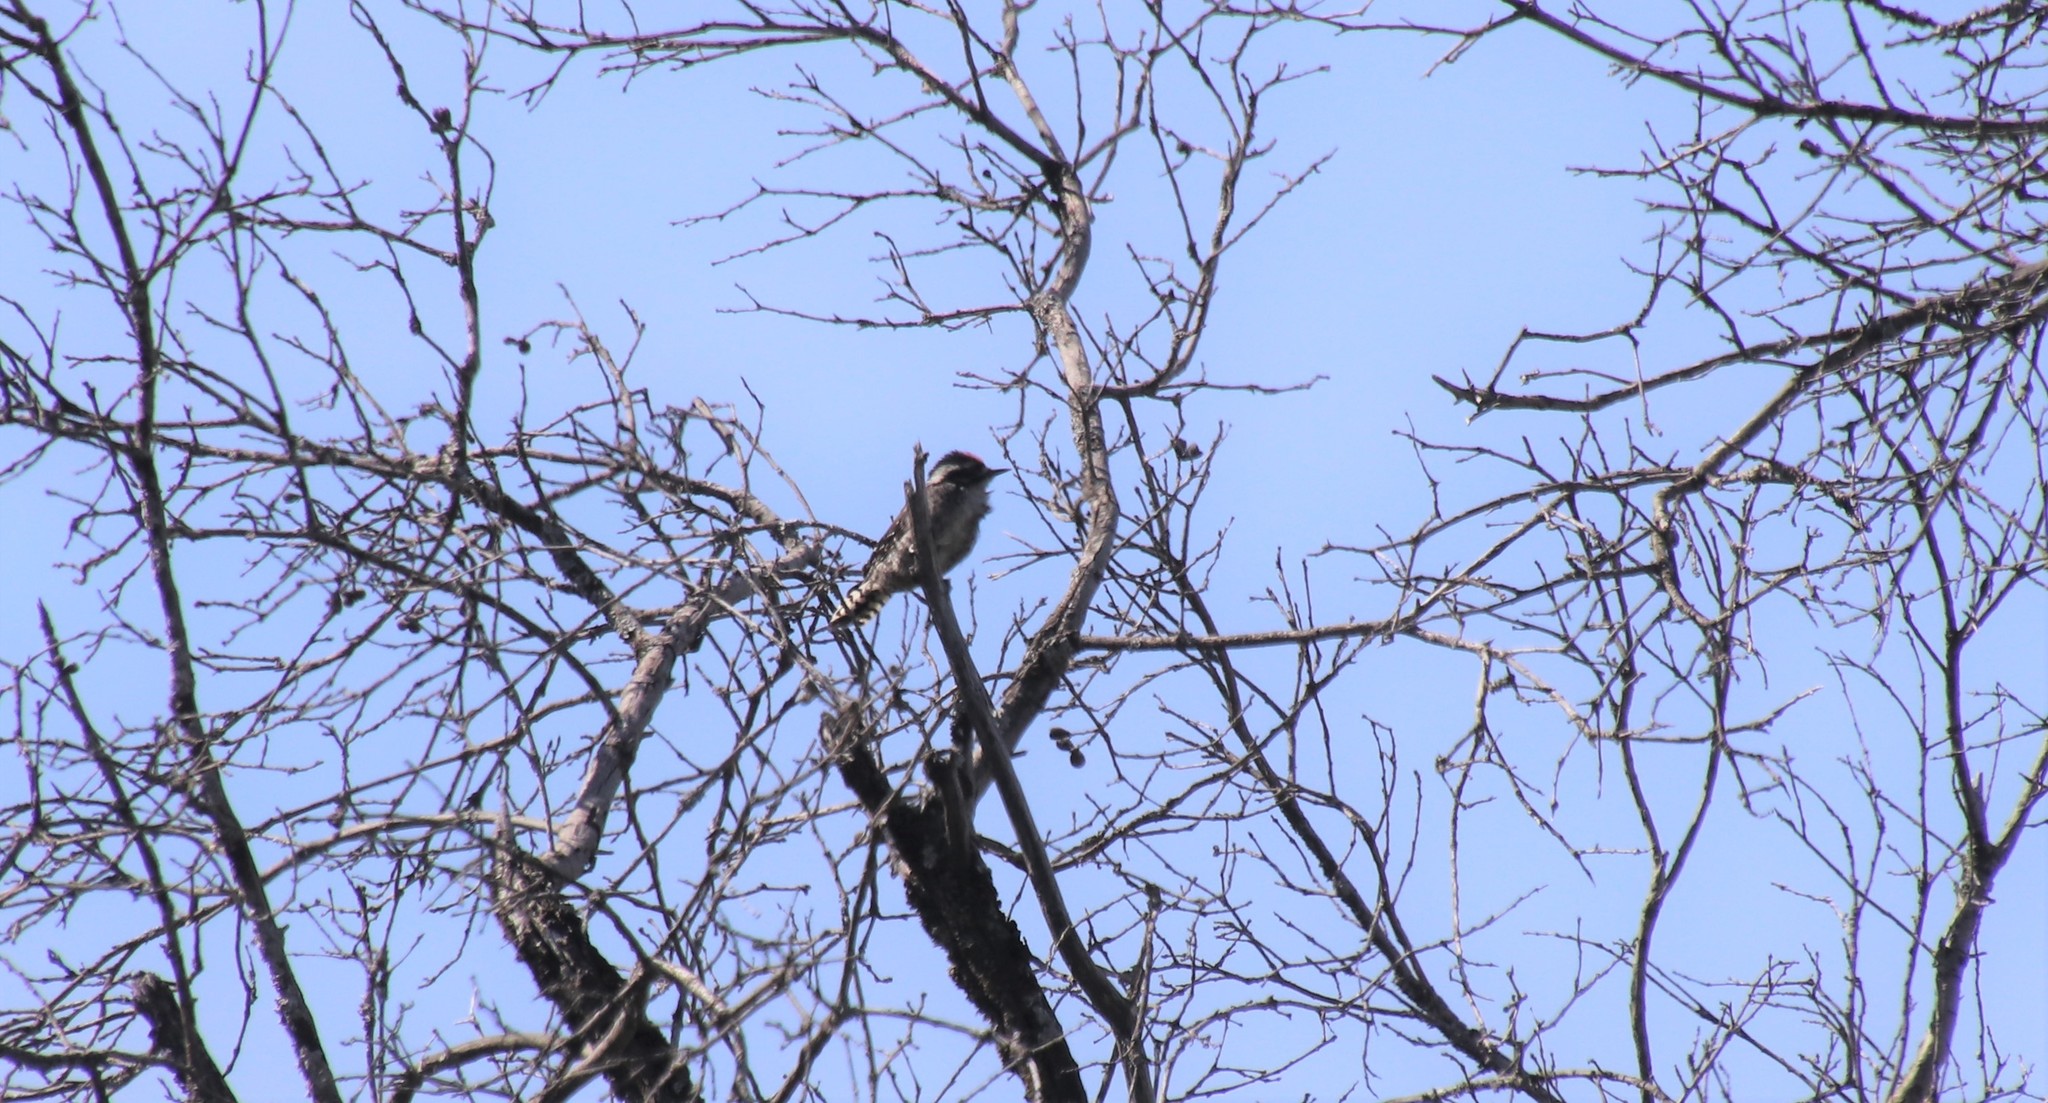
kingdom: Animalia
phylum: Chordata
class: Aves
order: Piciformes
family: Picidae
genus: Dryobates
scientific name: Dryobates nuttallii
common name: Nuttall's woodpecker
